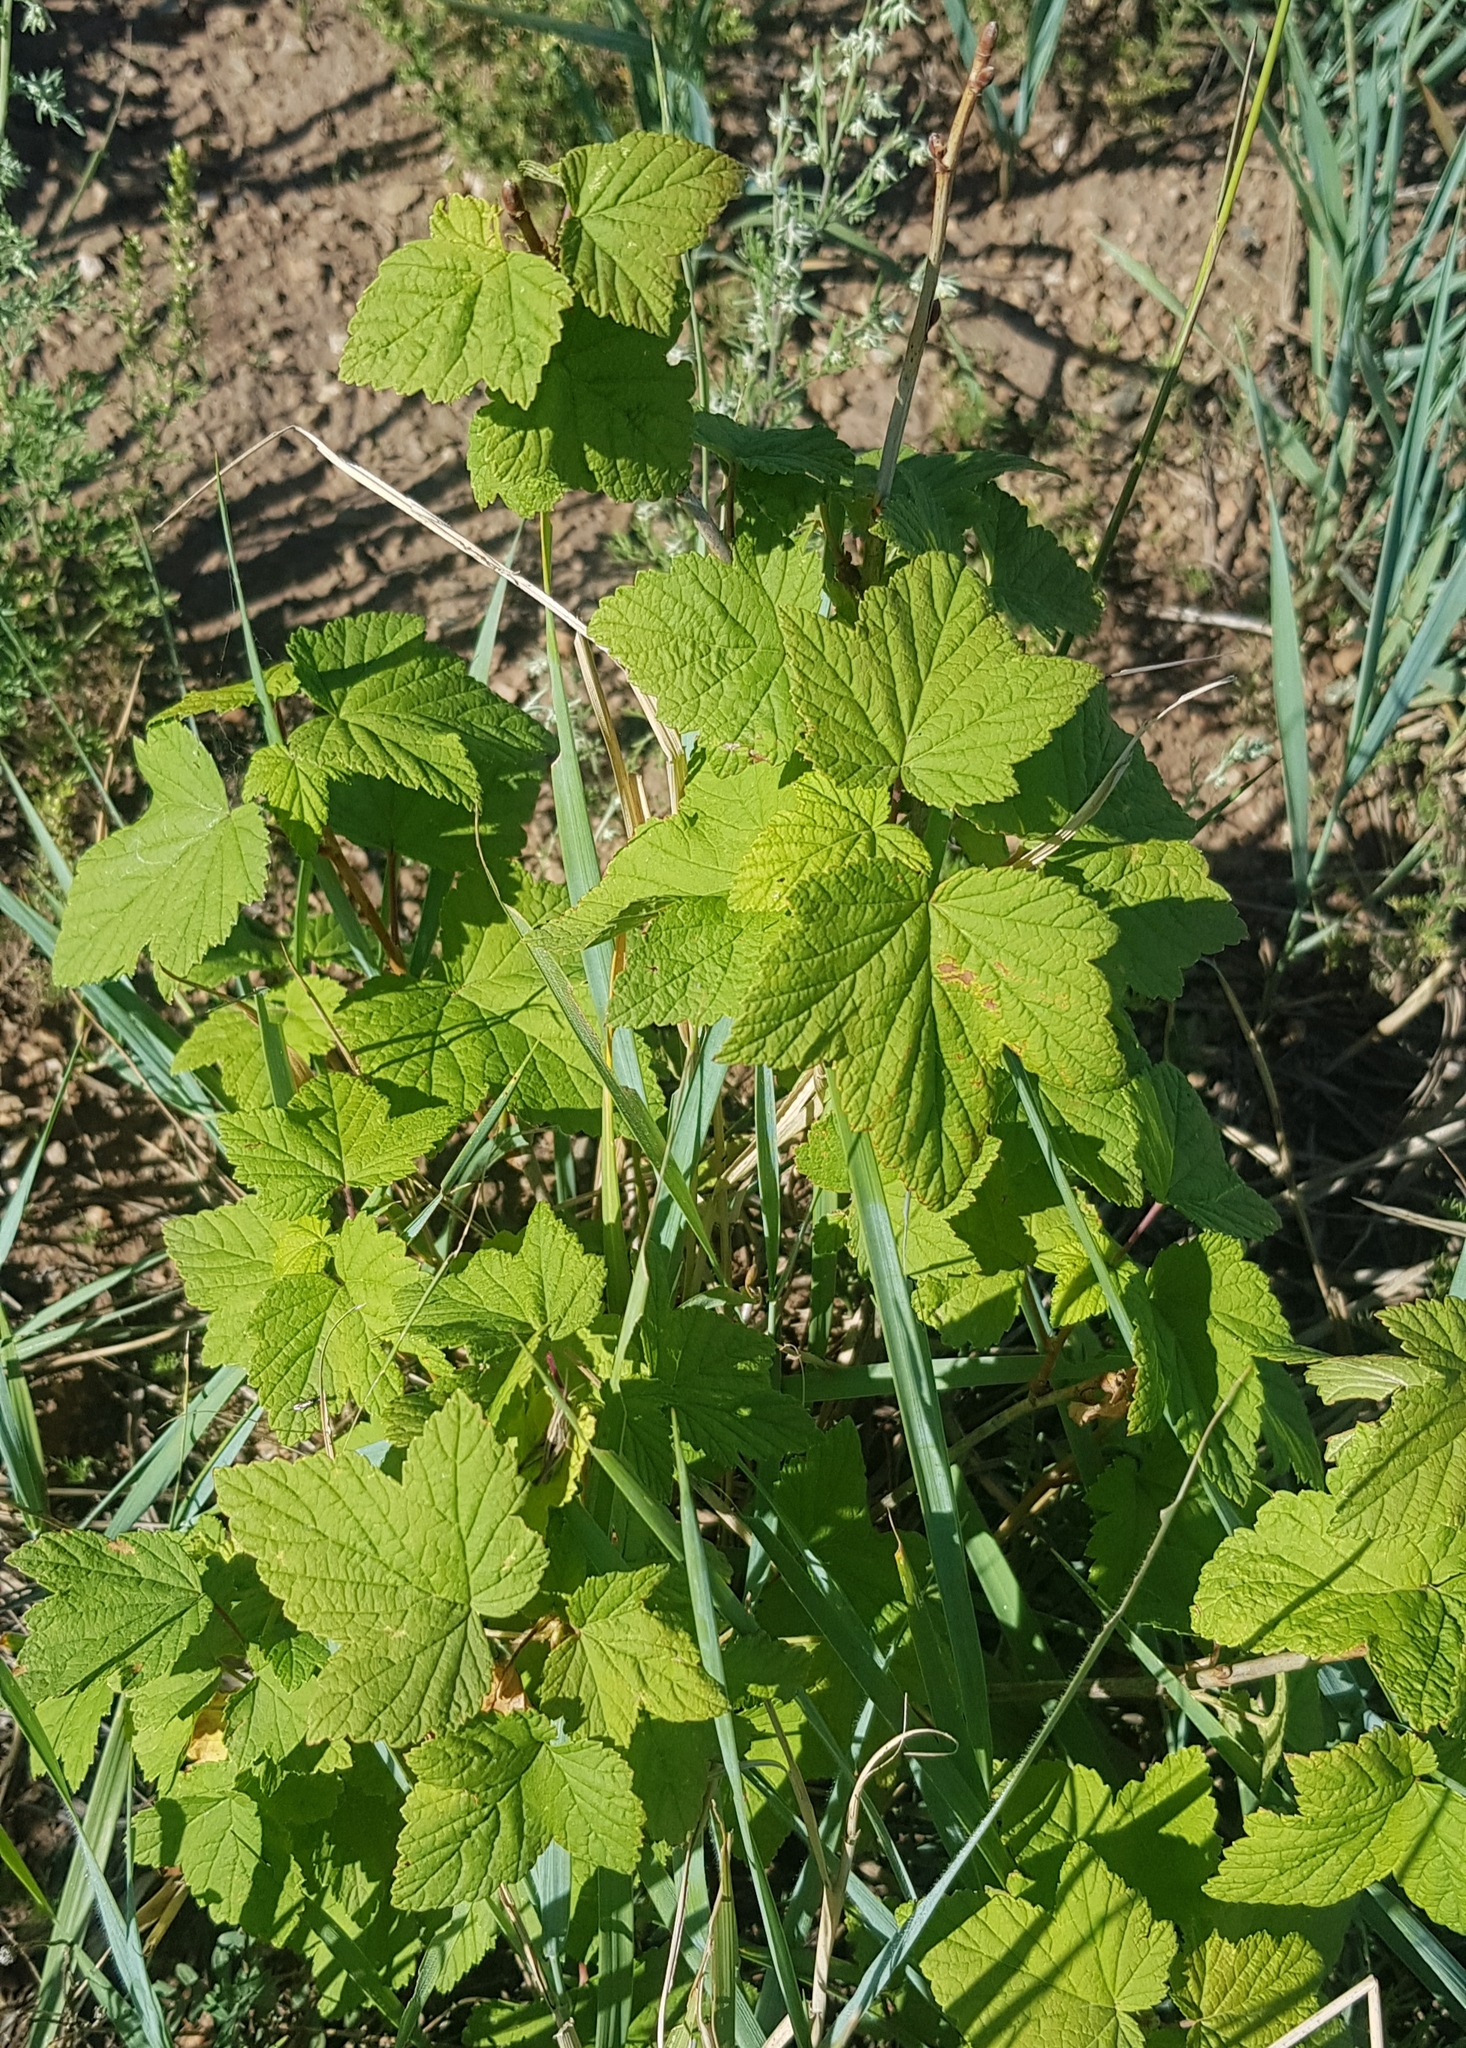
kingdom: Plantae
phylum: Tracheophyta
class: Magnoliopsida
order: Saxifragales
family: Grossulariaceae
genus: Ribes
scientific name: Ribes nigrum
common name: Black currant
